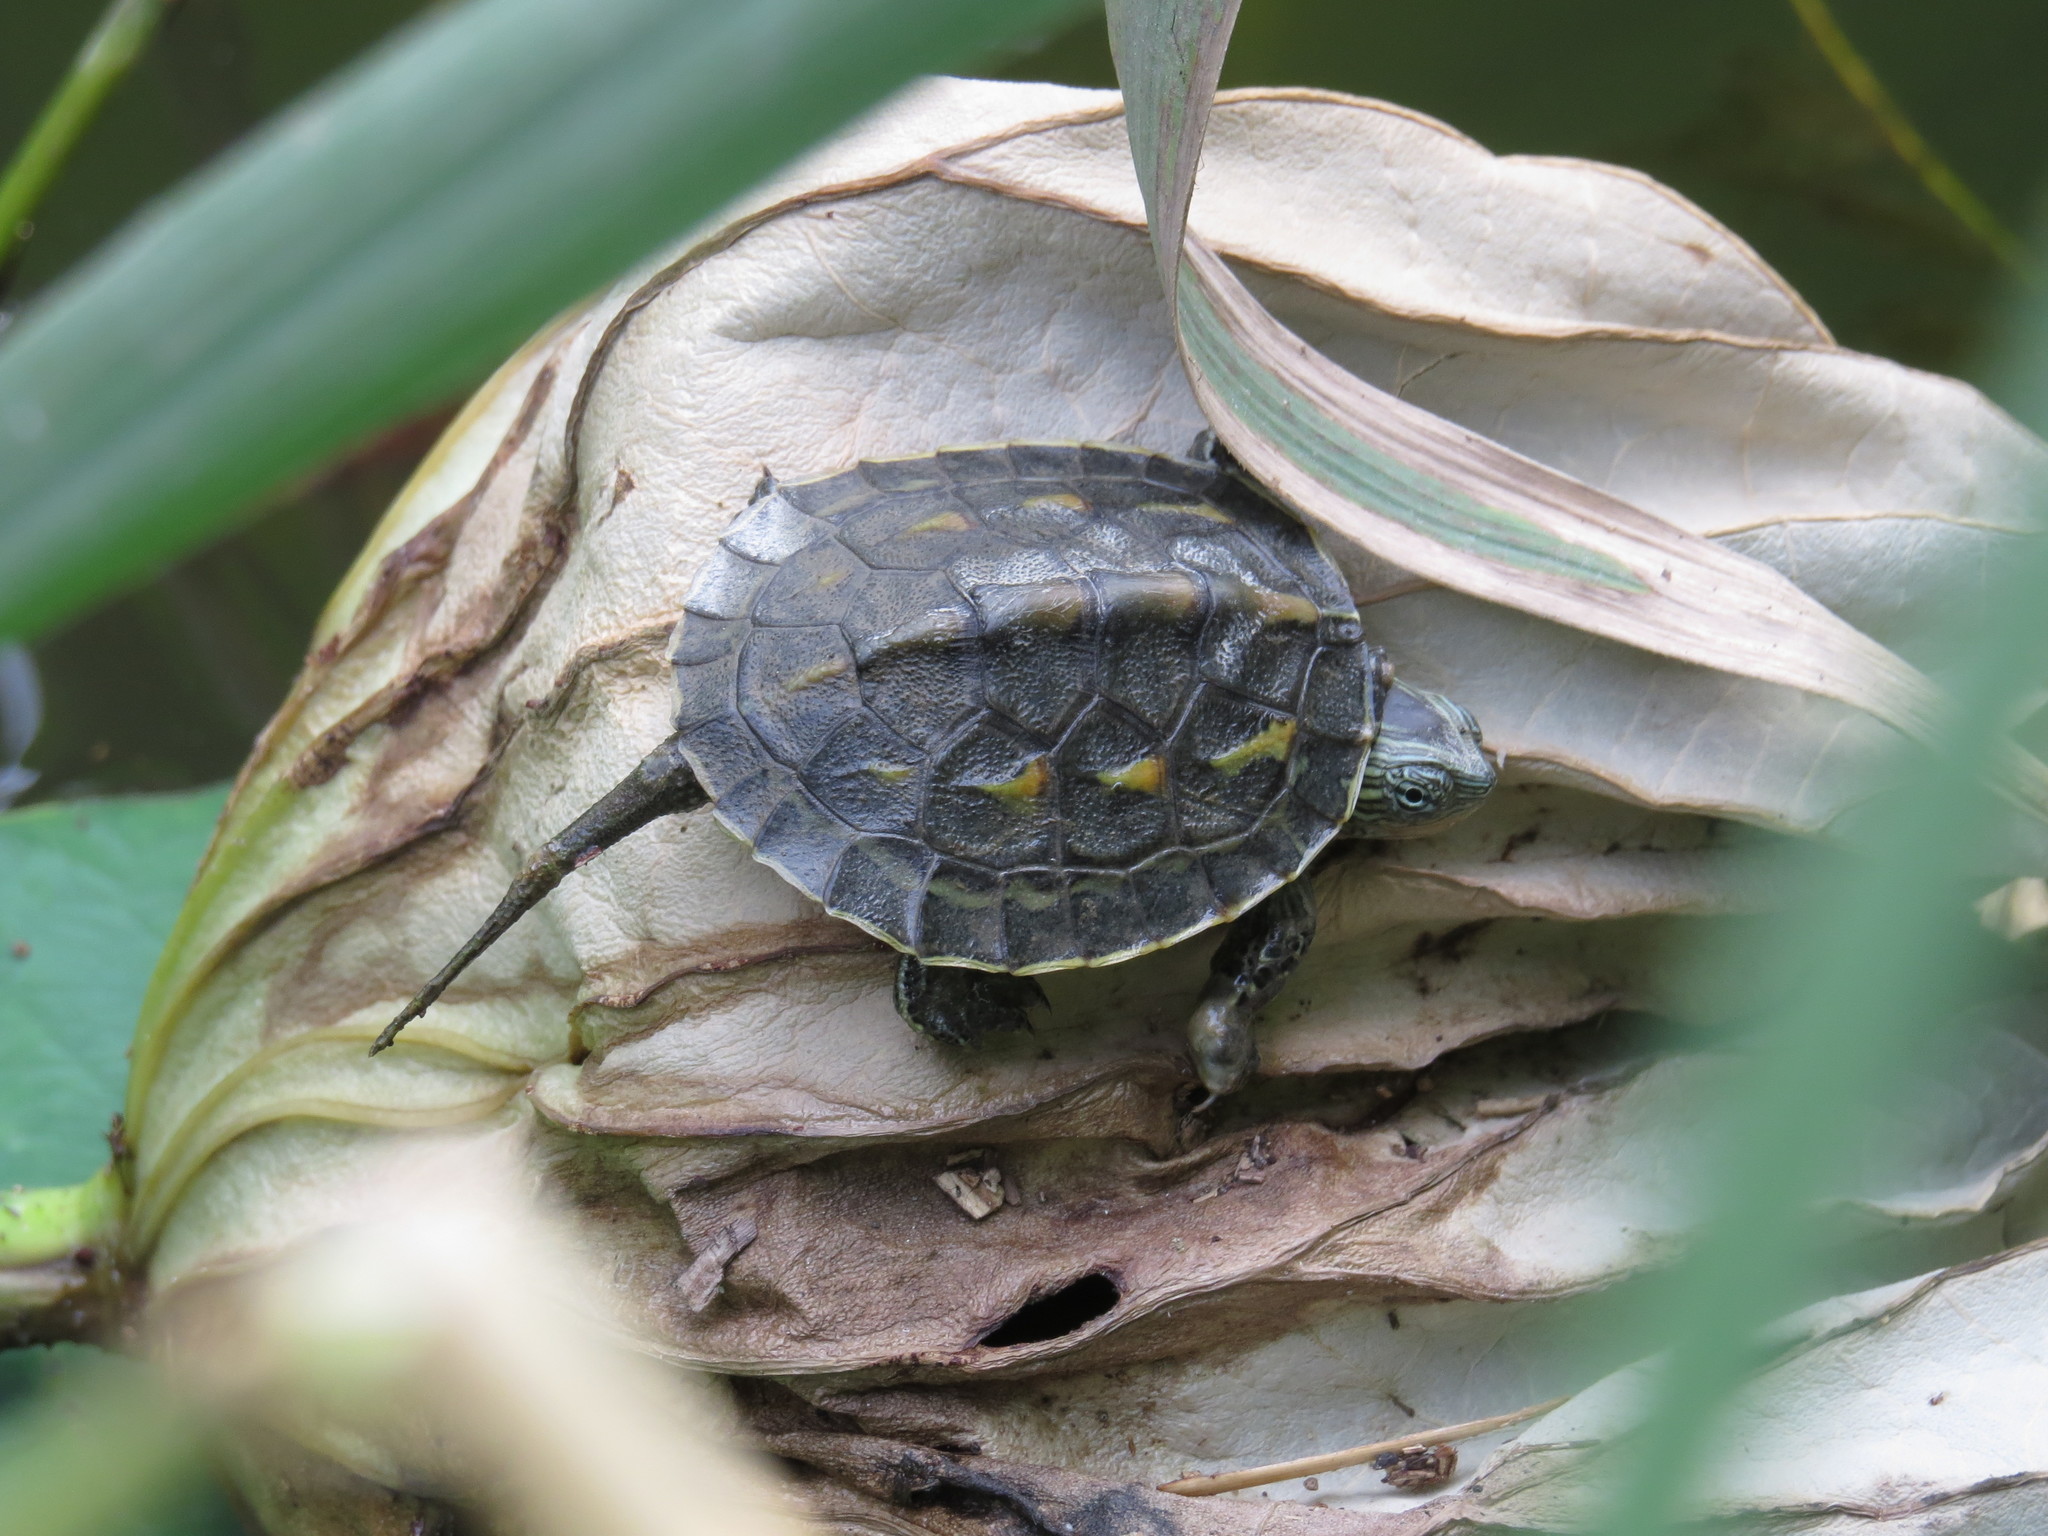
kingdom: Animalia
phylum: Chordata
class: Testudines
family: Geoemydidae
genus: Mauremys
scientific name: Mauremys sinensis
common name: Chinese stripe-necked turtle
